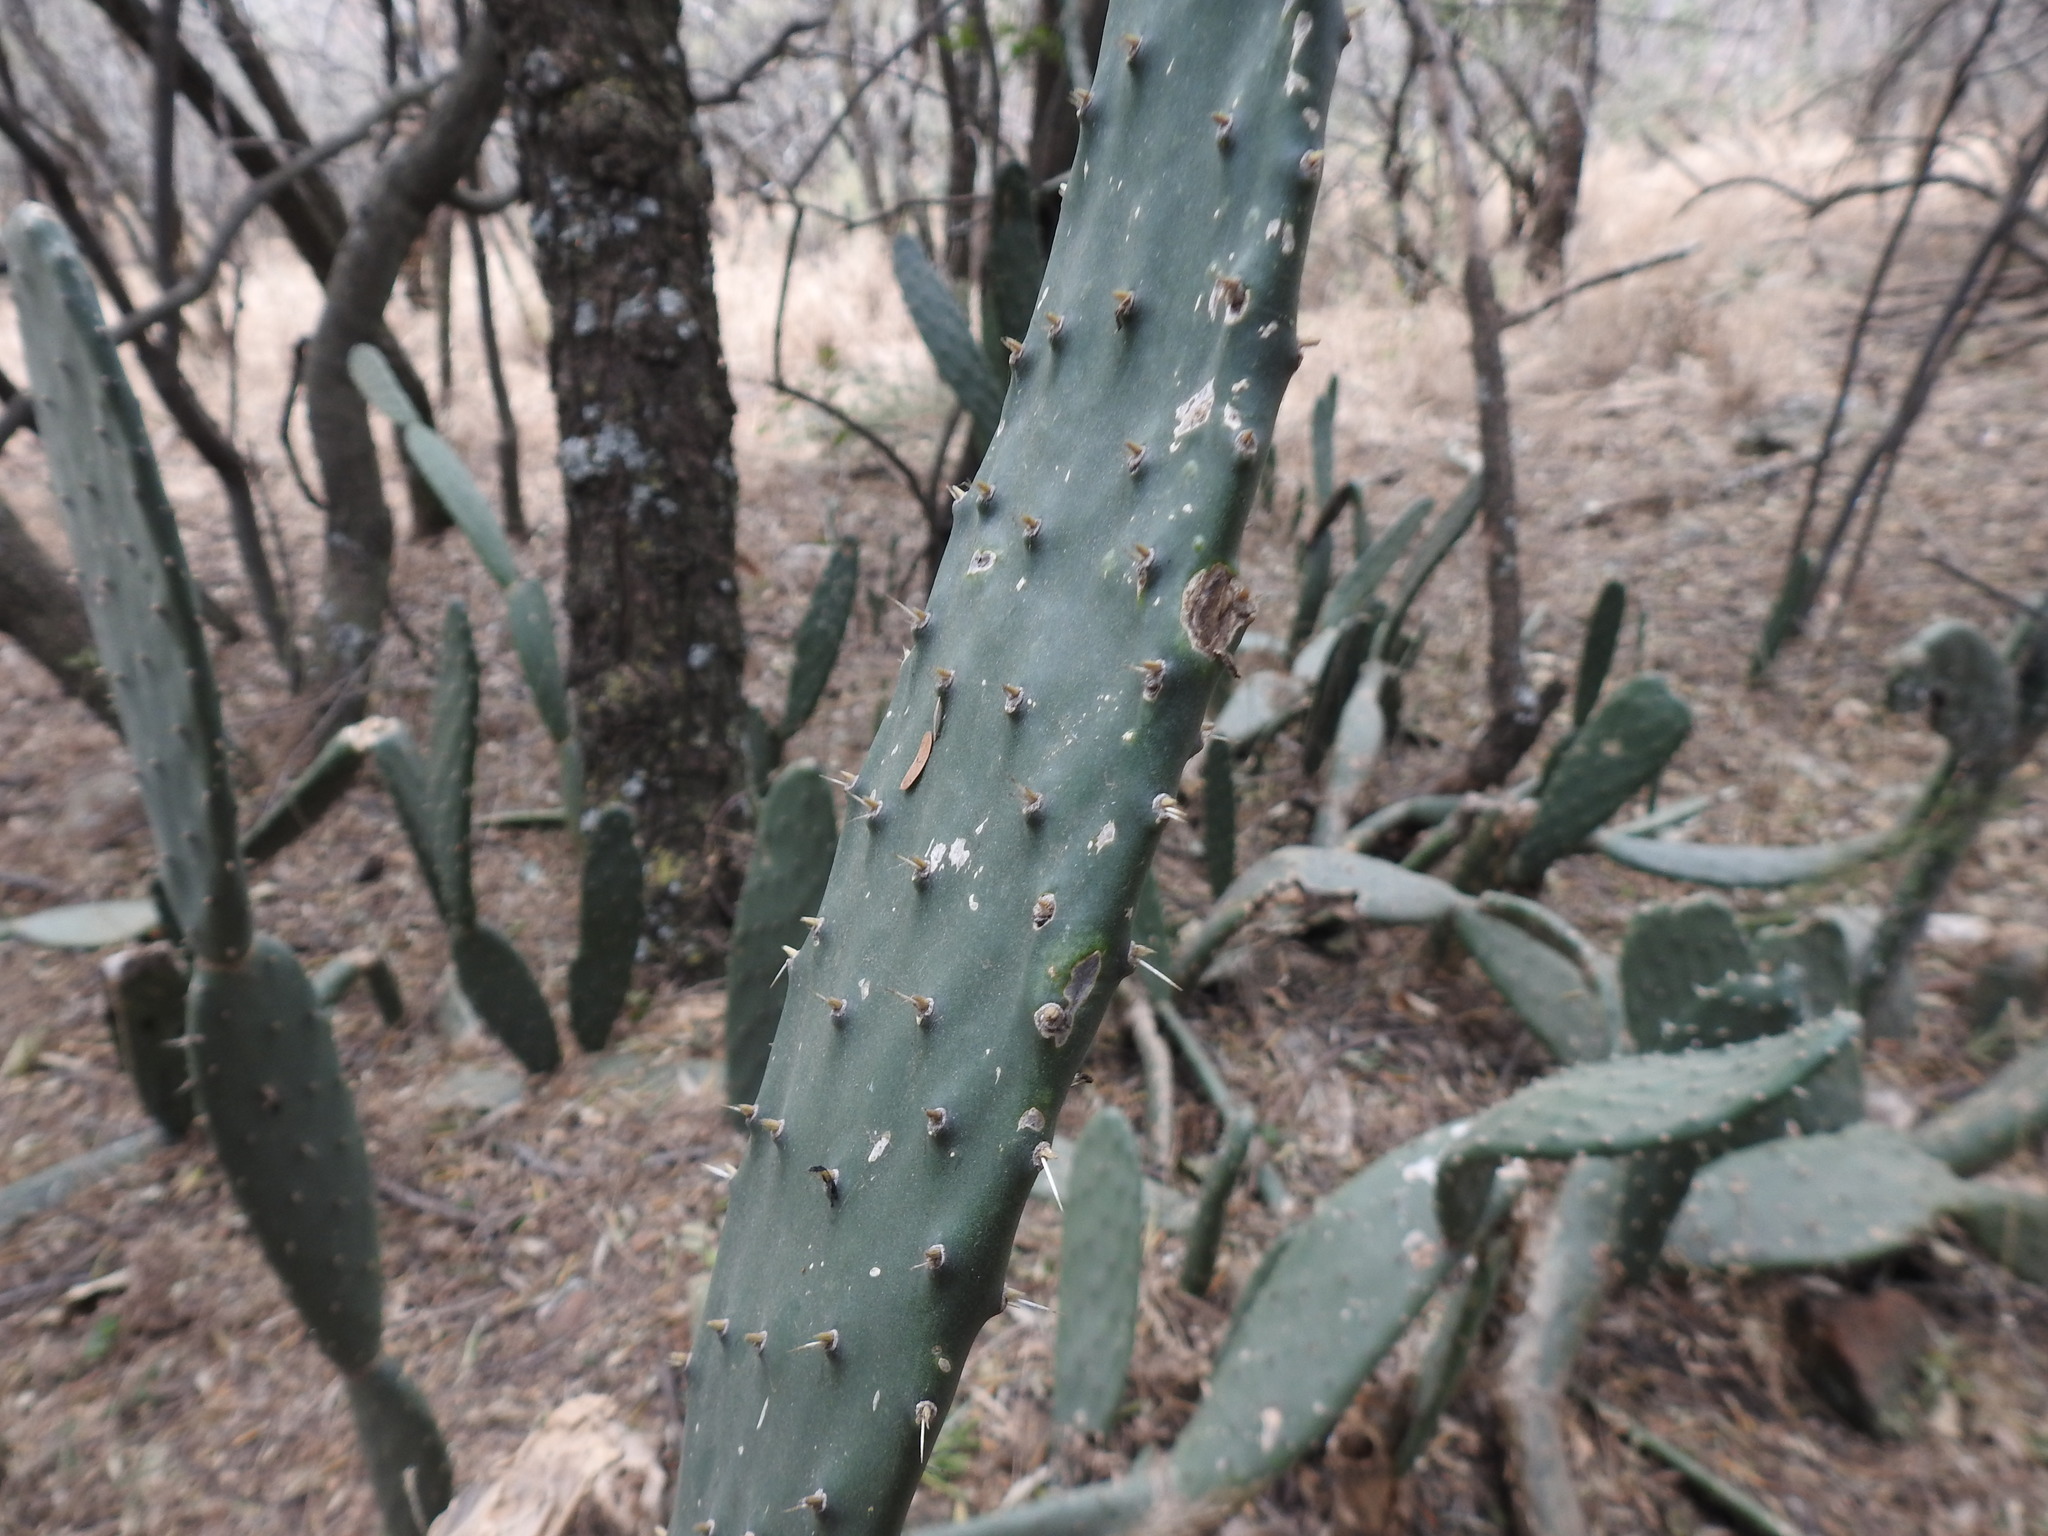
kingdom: Plantae
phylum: Tracheophyta
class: Magnoliopsida
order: Caryophyllales
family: Cactaceae
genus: Opuntia
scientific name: Opuntia tomentosa
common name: Woollyjoint pricklypear
